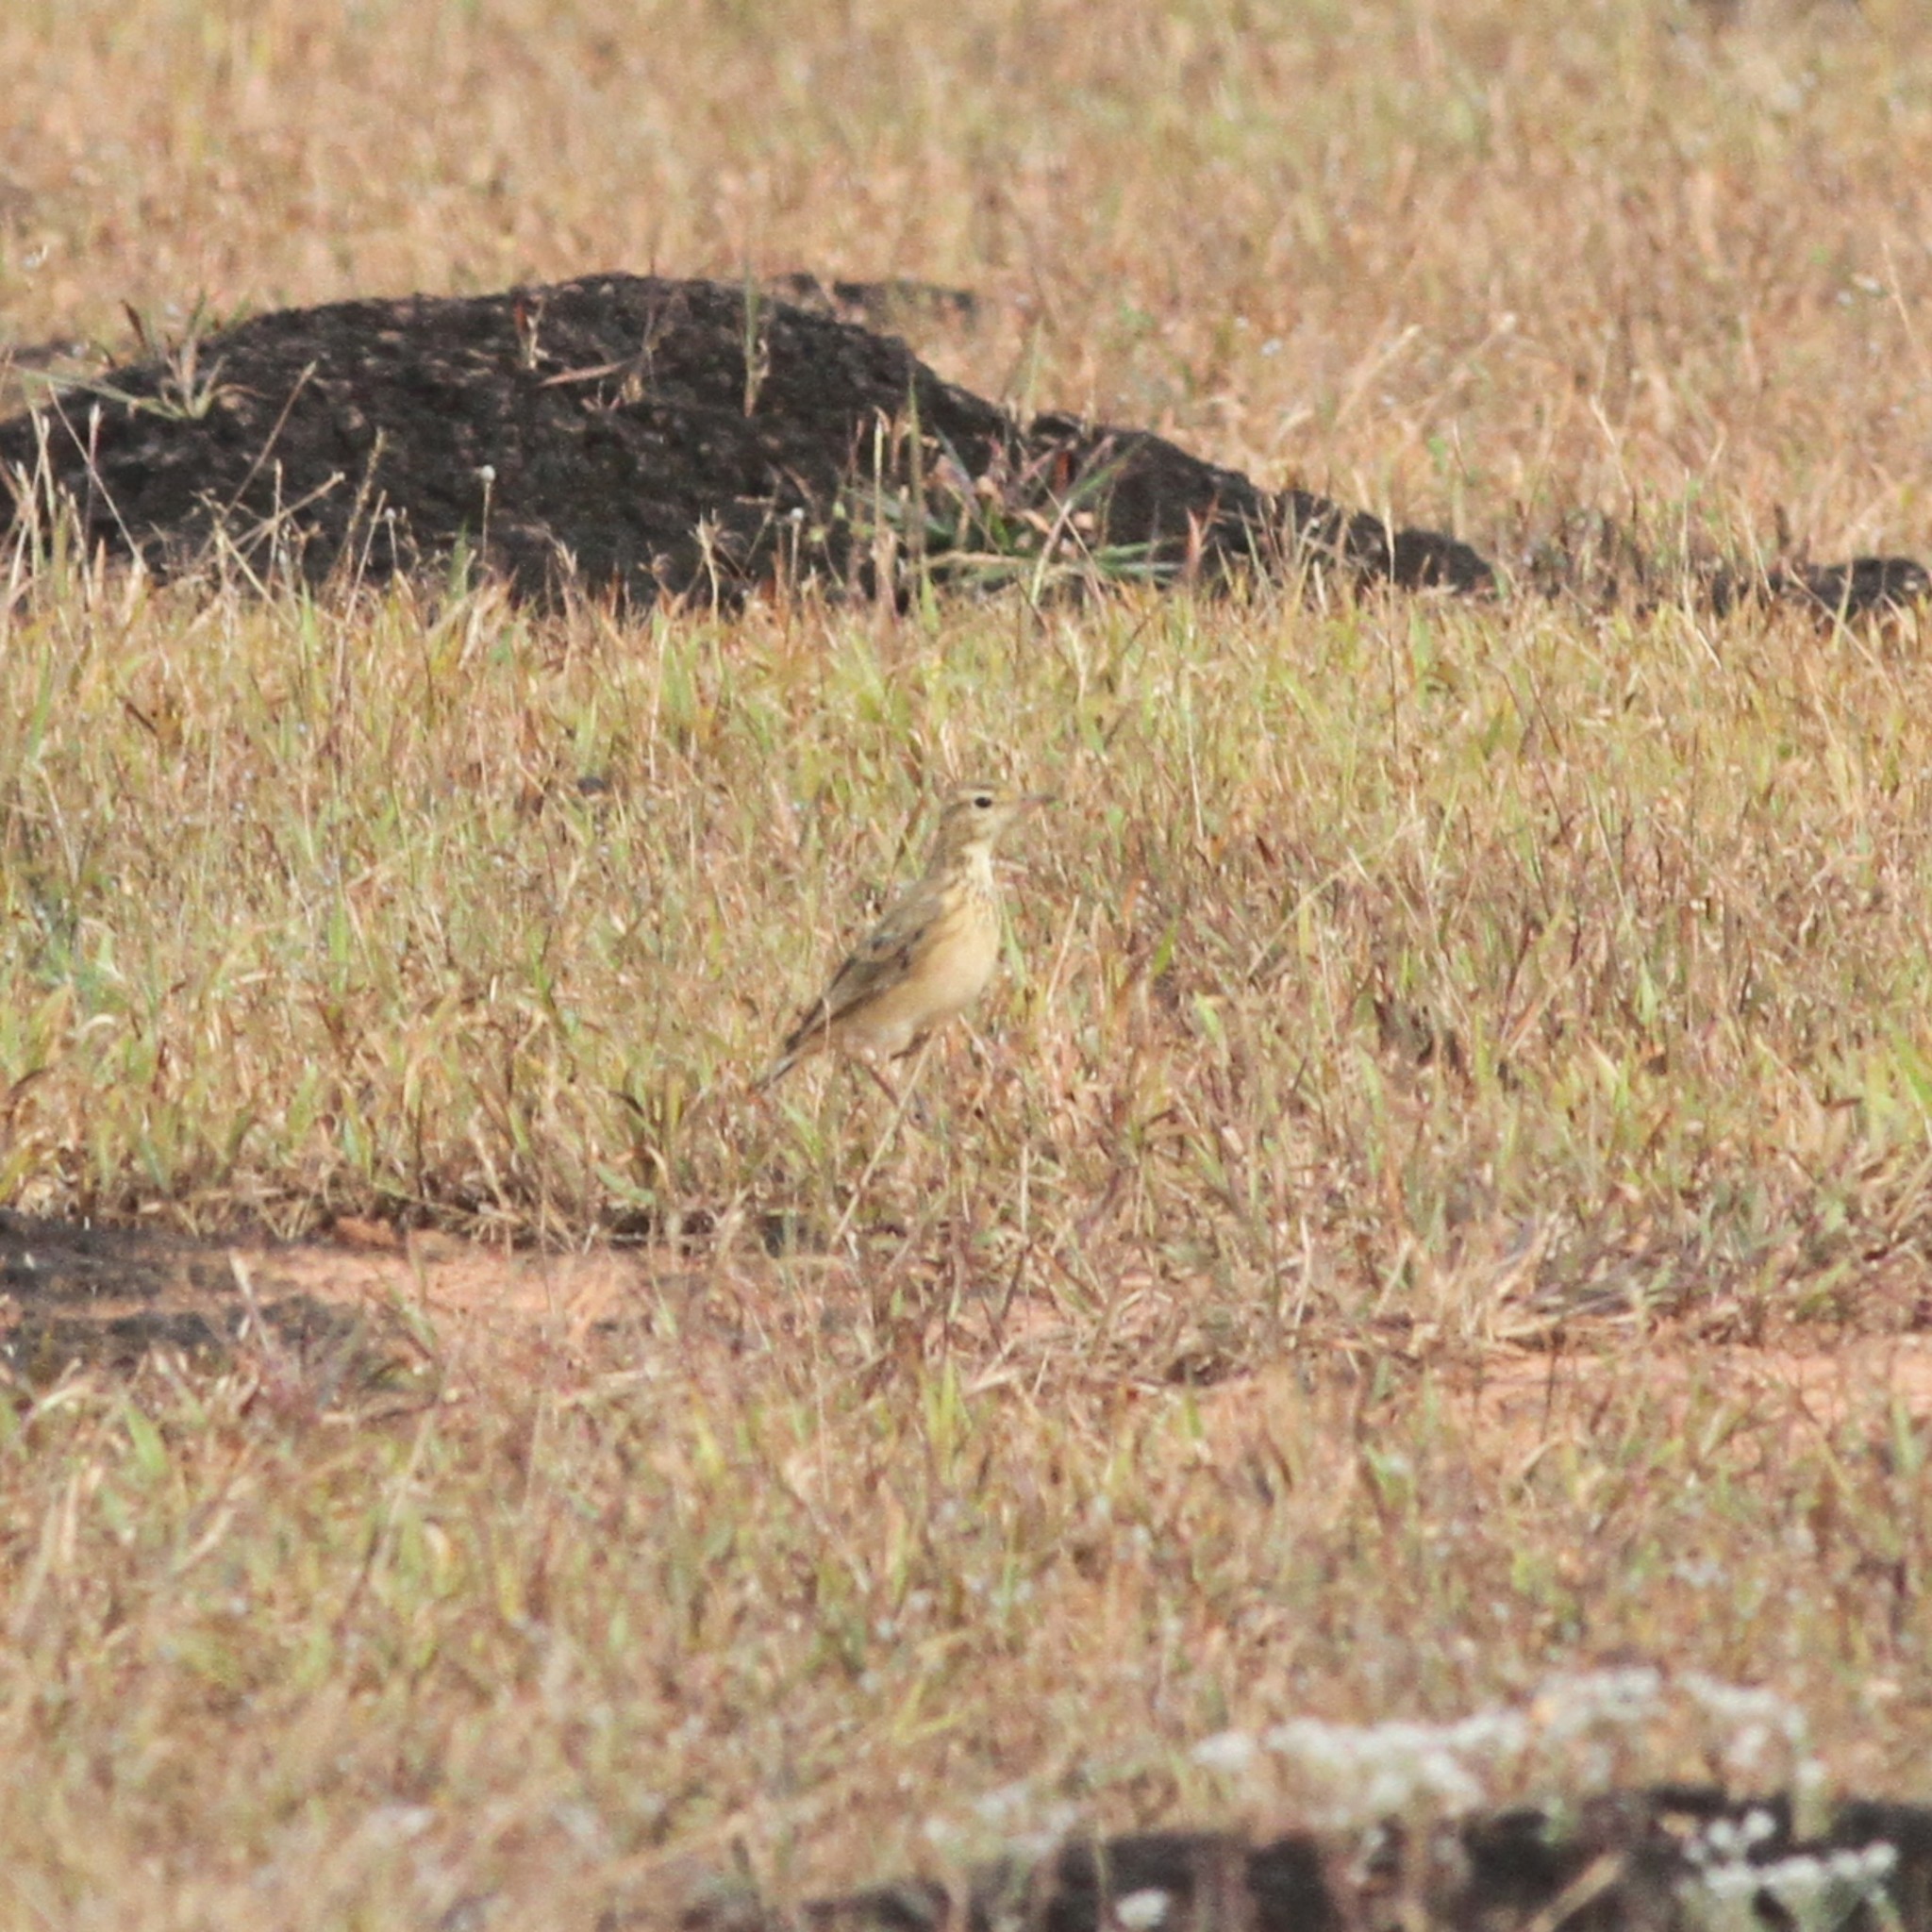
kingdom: Animalia
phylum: Chordata
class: Aves
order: Passeriformes
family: Motacillidae
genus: Anthus
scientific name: Anthus rufulus
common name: Paddyfield pipit
